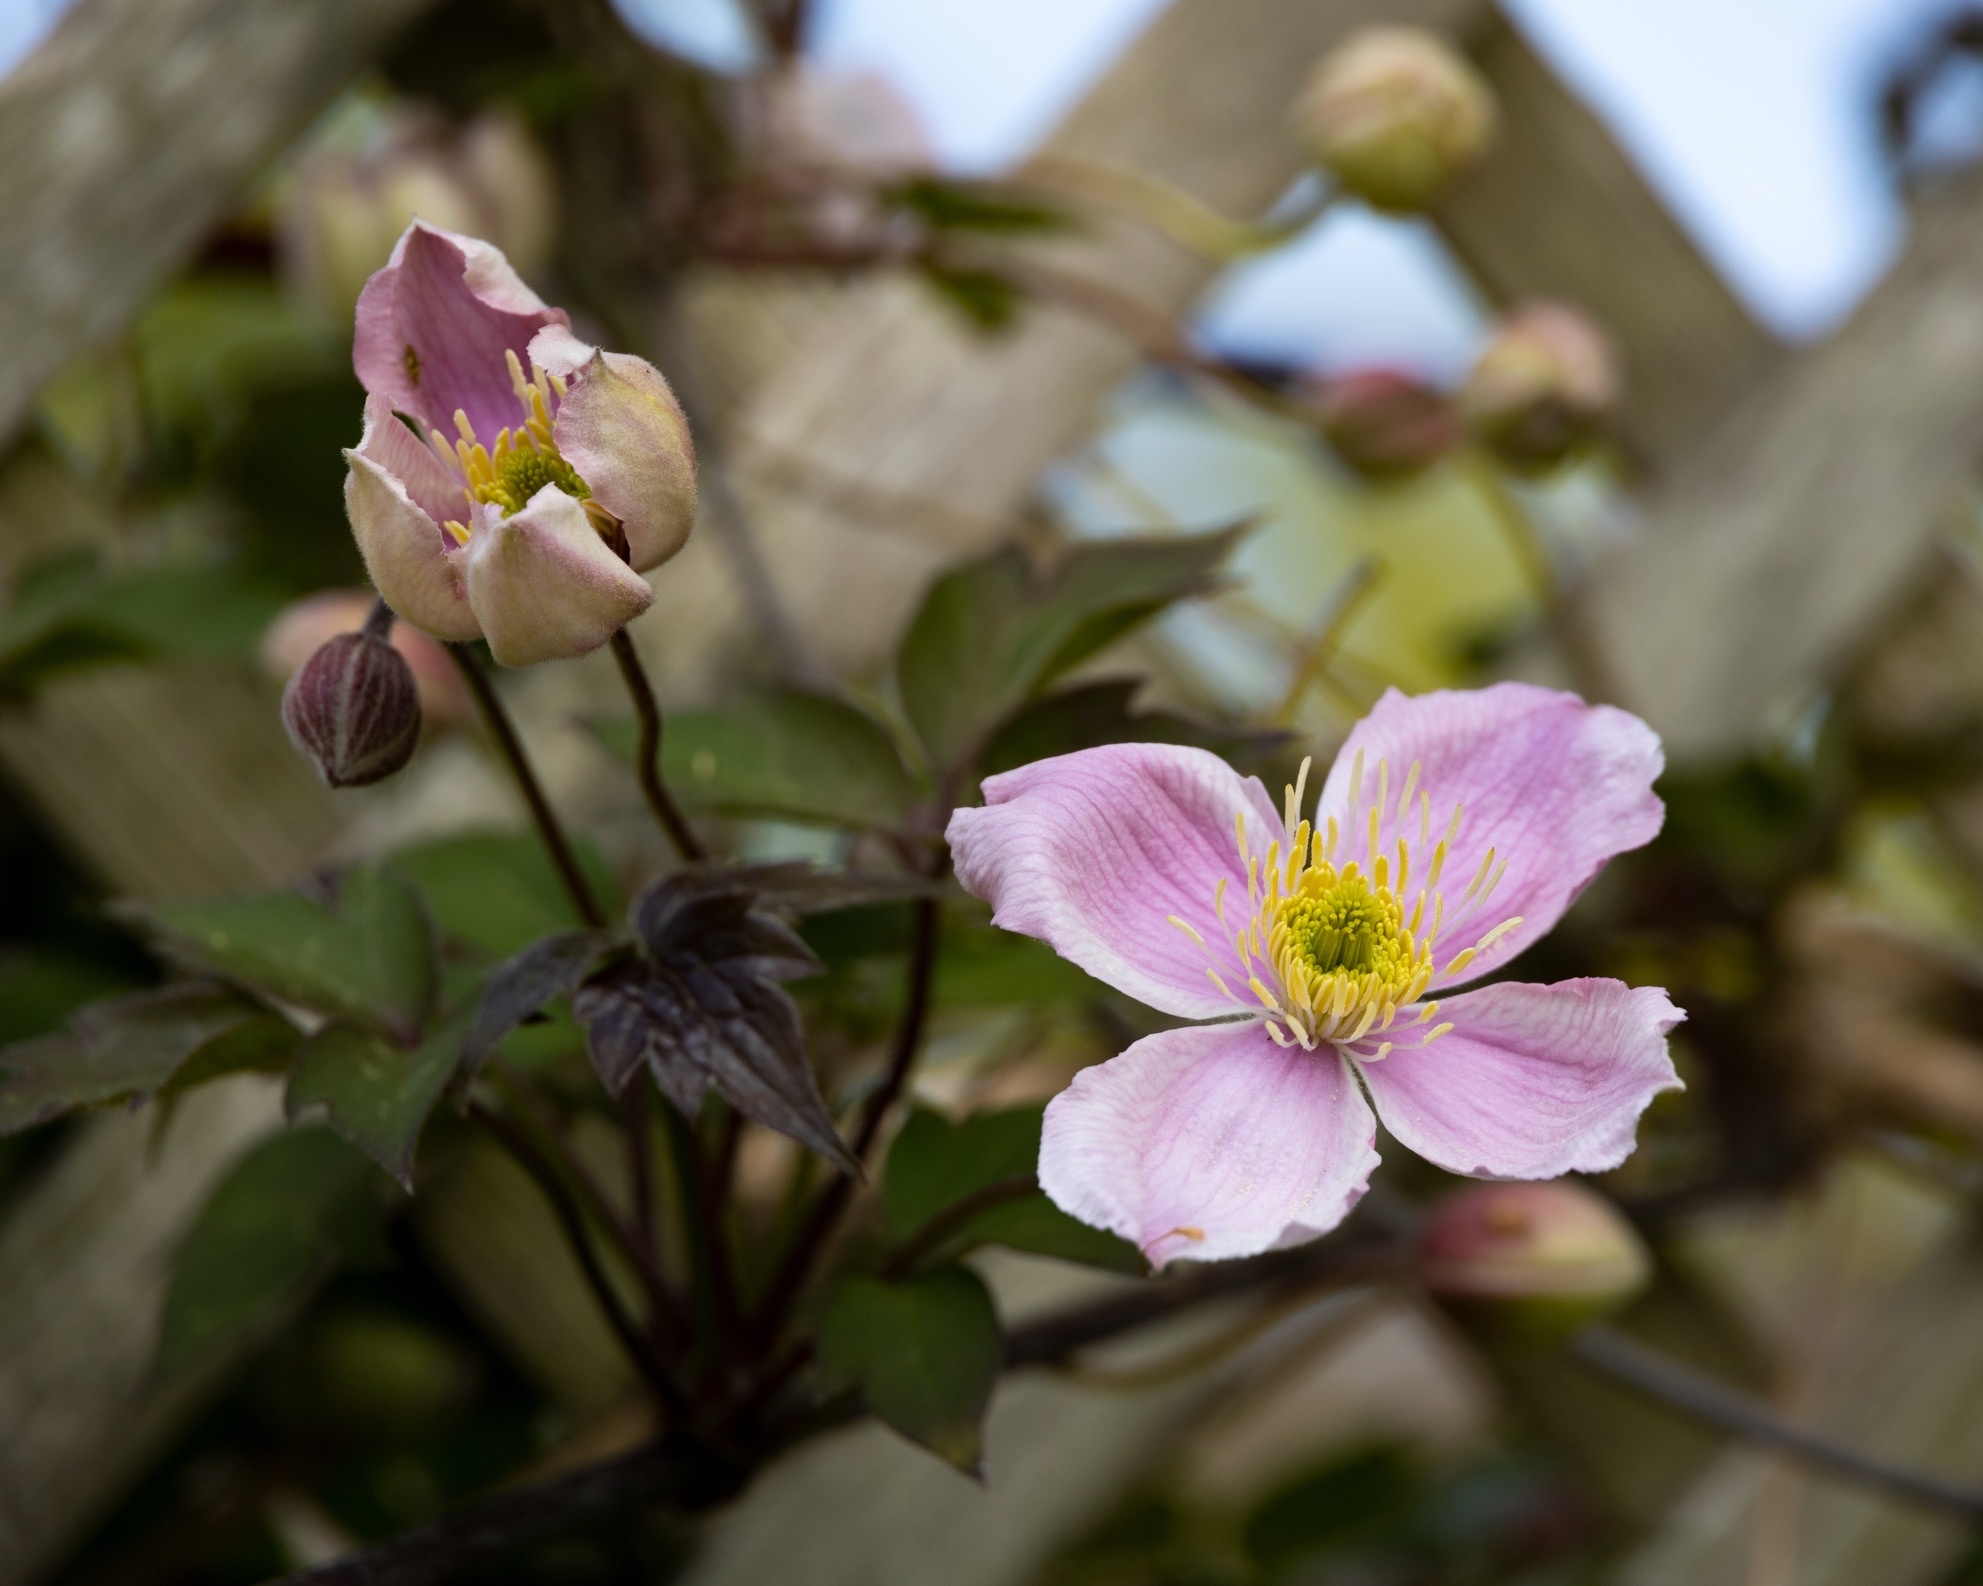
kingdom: Plantae
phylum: Tracheophyta
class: Magnoliopsida
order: Ranunculales
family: Ranunculaceae
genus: Clematis
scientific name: Clematis montana
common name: Himalayan clematis
